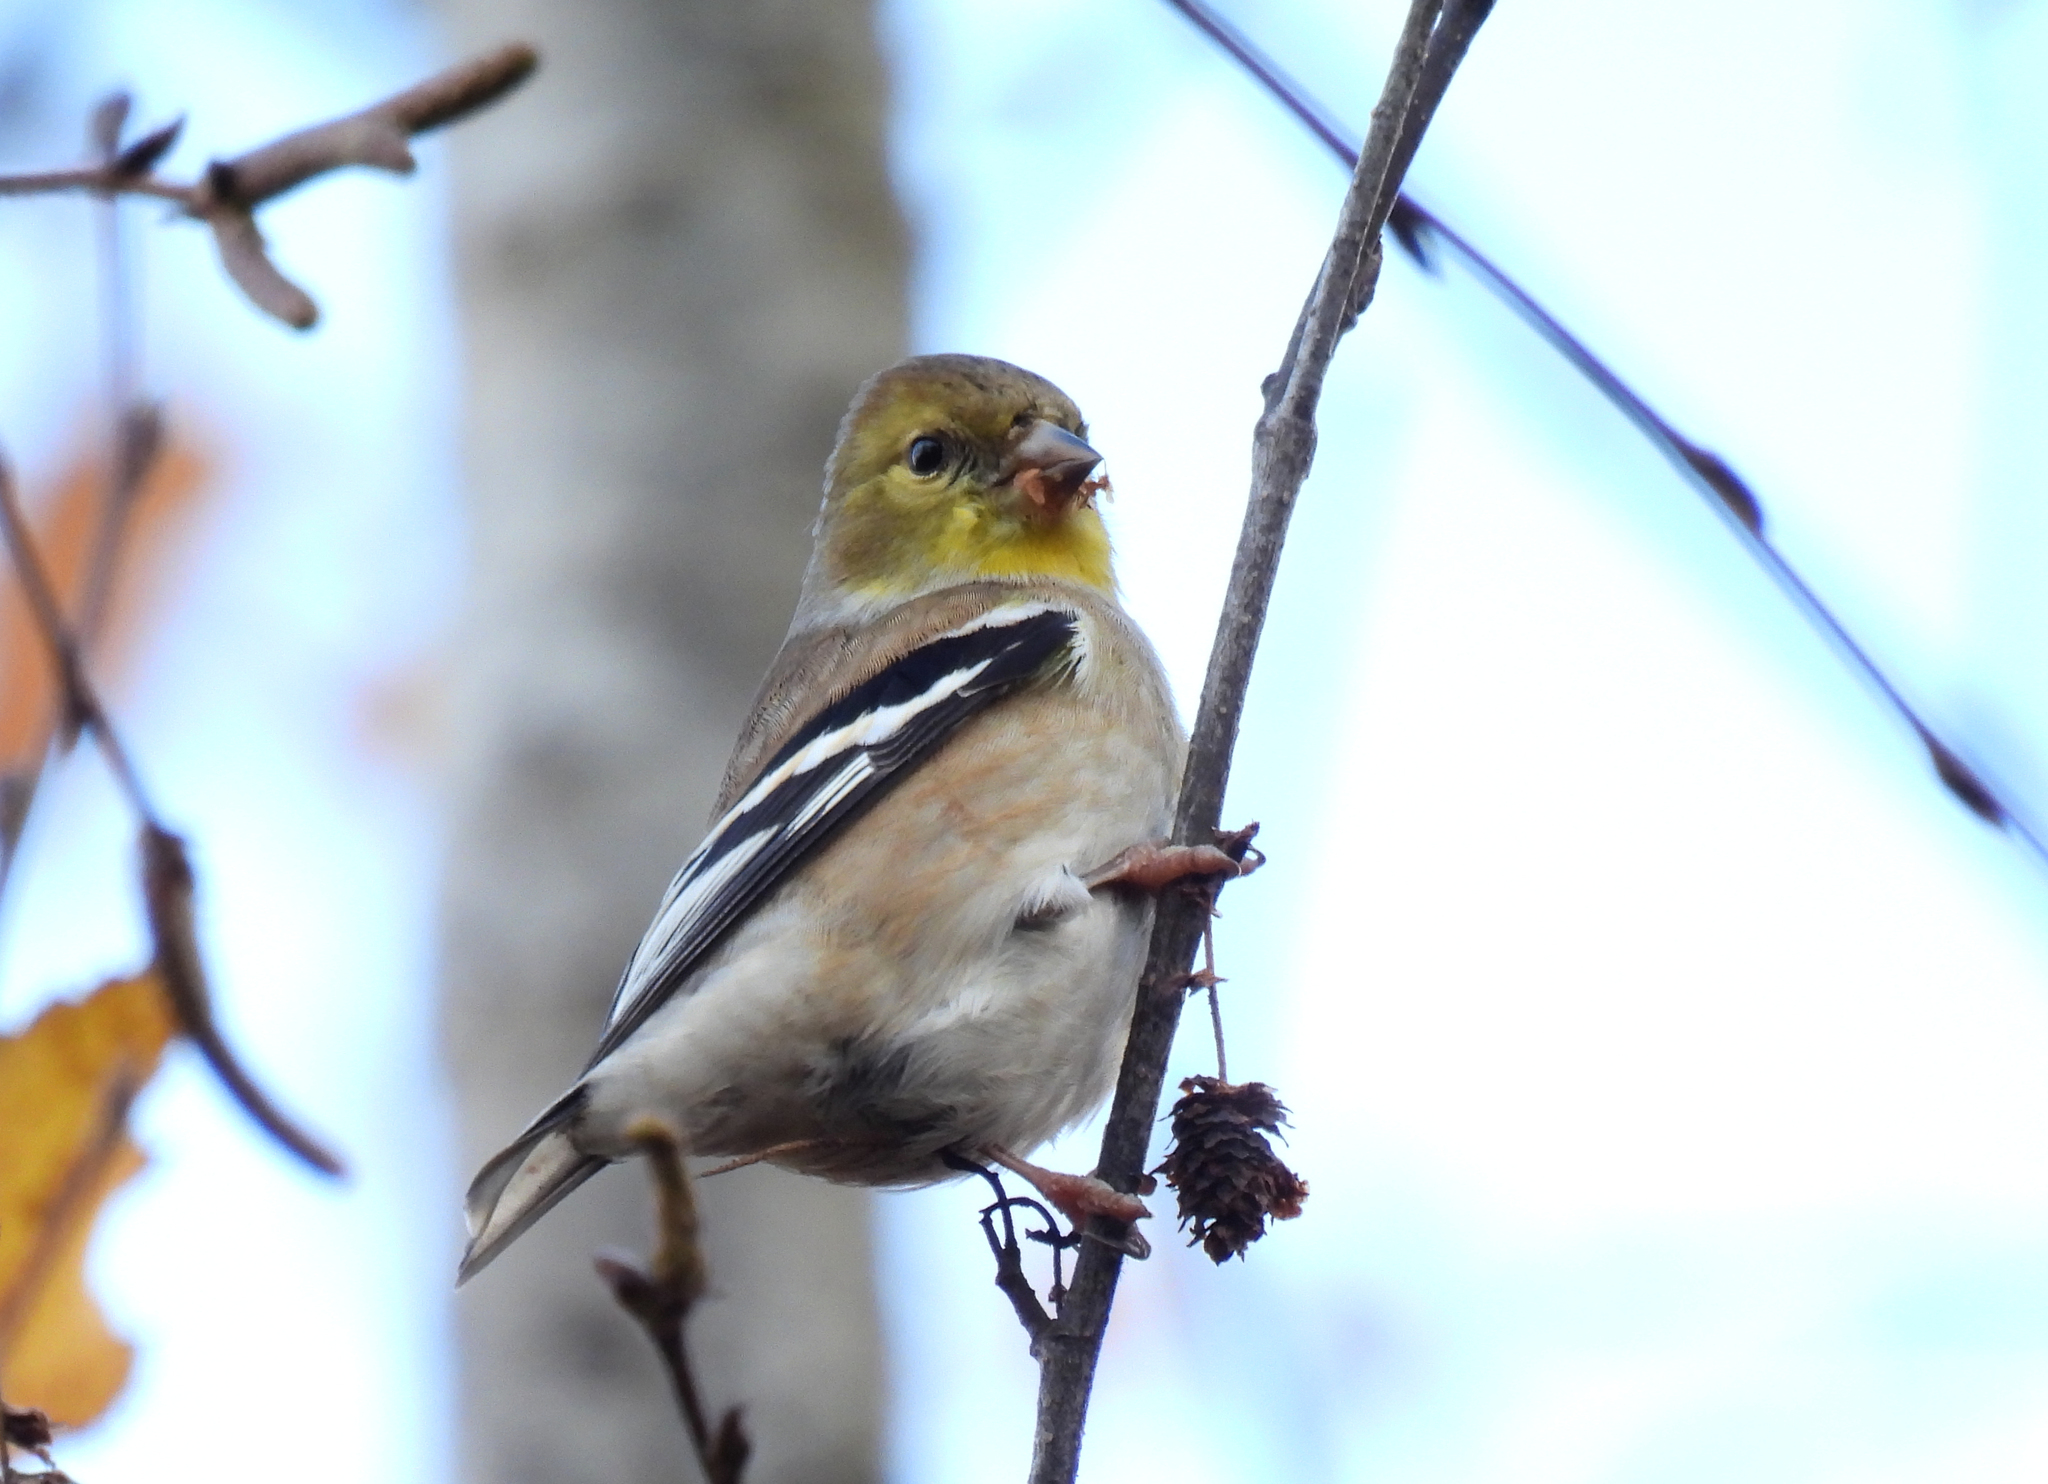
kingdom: Animalia
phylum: Chordata
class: Aves
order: Passeriformes
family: Fringillidae
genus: Spinus
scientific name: Spinus tristis
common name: American goldfinch
